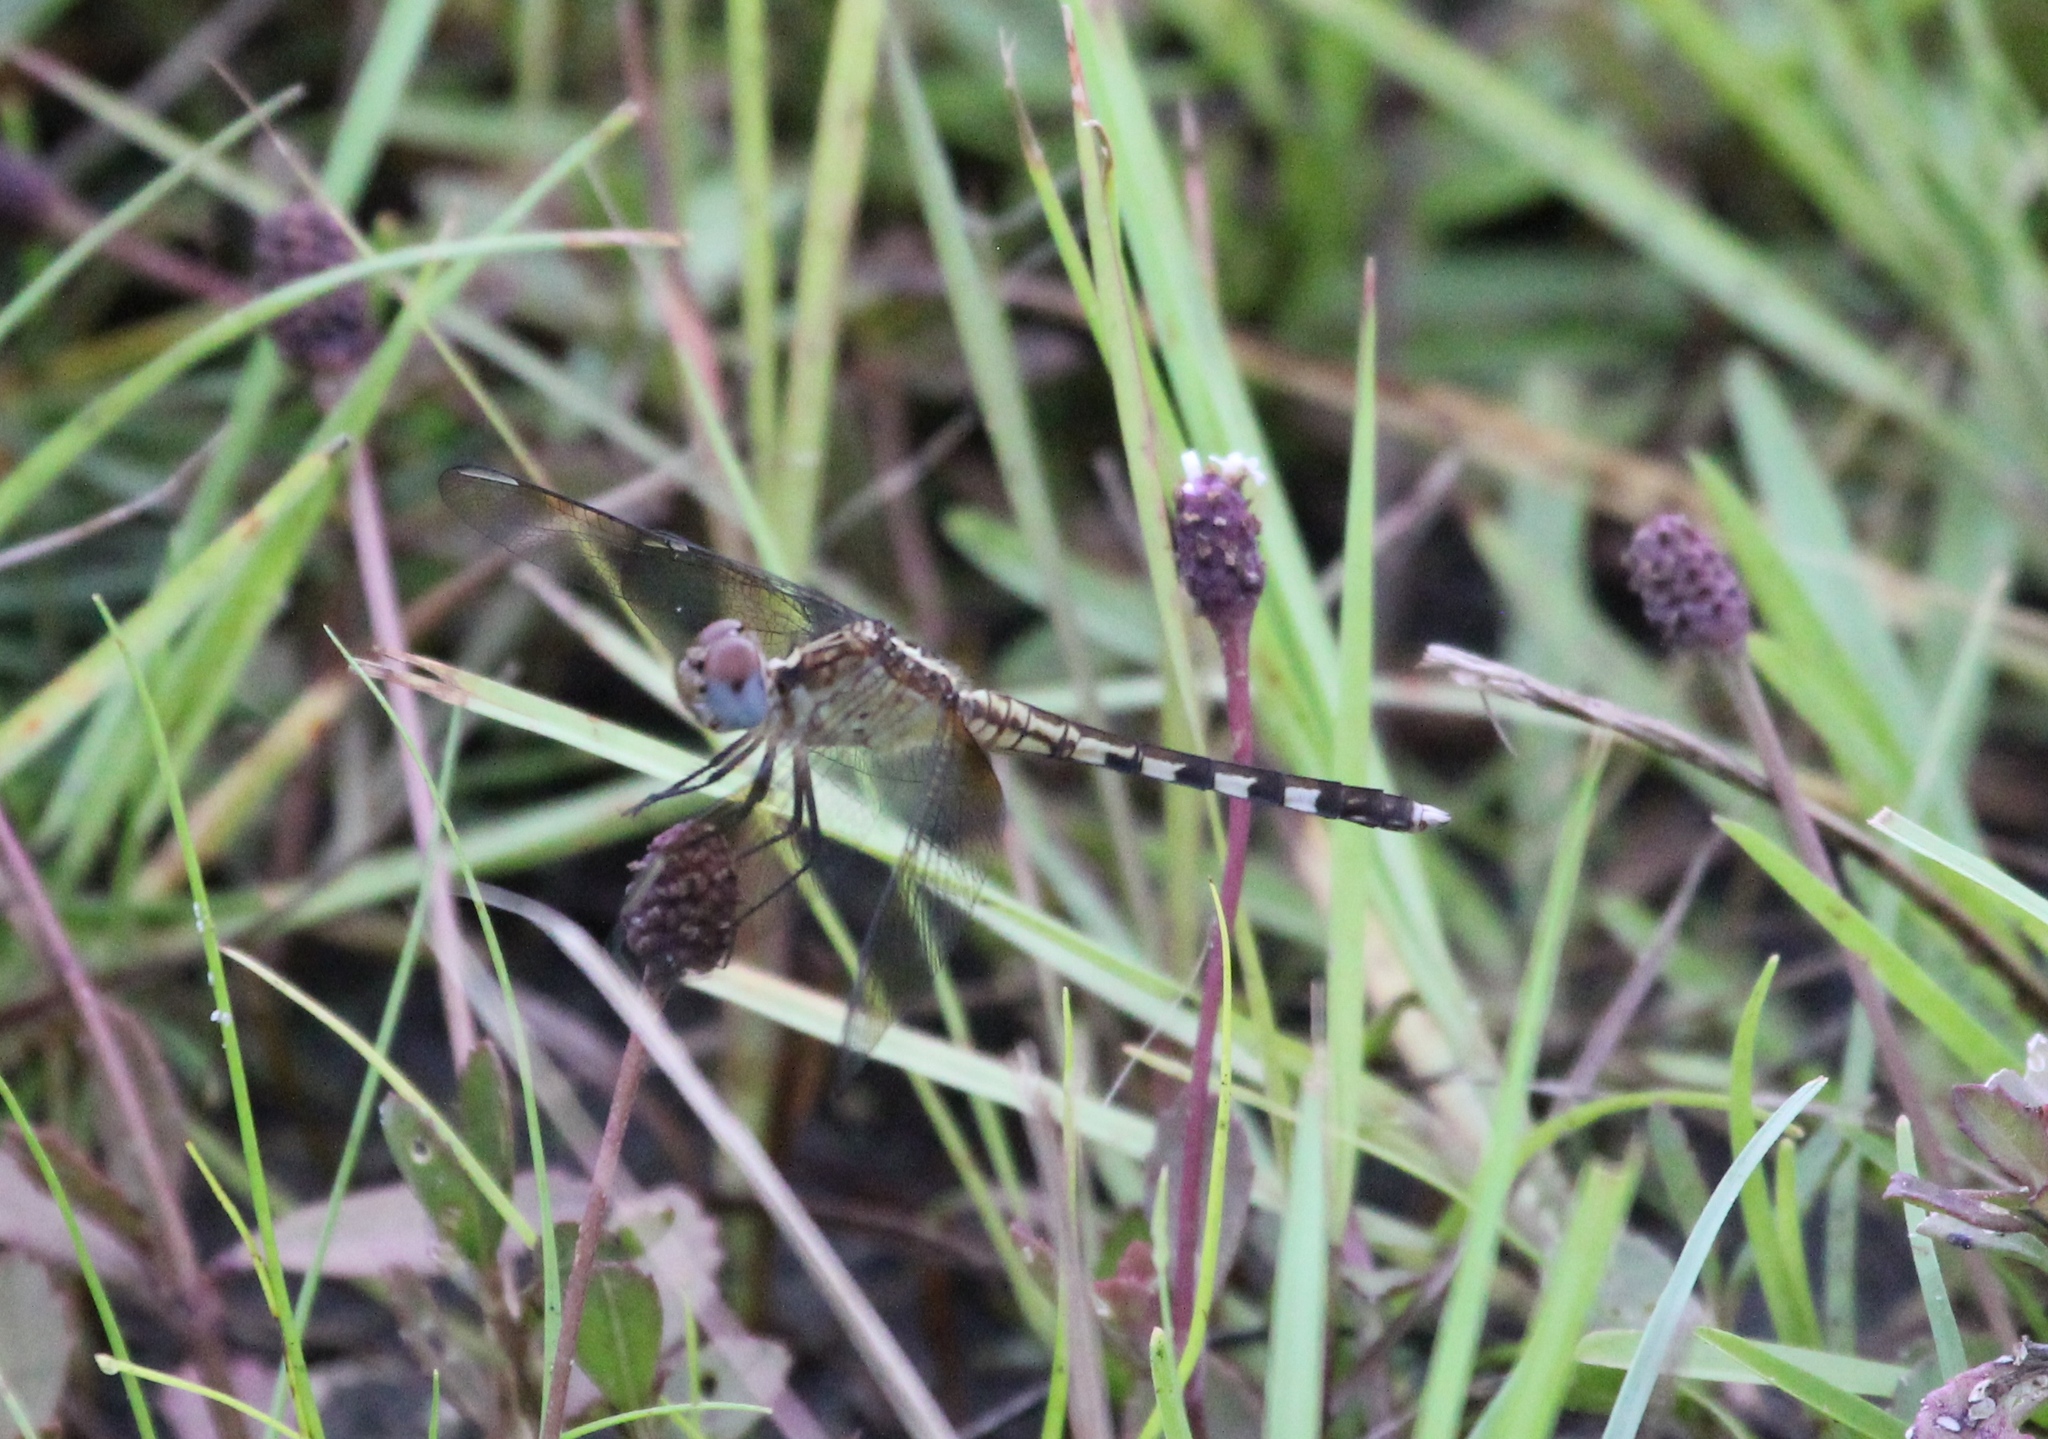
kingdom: Animalia
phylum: Arthropoda
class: Insecta
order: Odonata
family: Libellulidae
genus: Erythrodiplax
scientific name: Erythrodiplax umbrata
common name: Band-winged dragonlet
